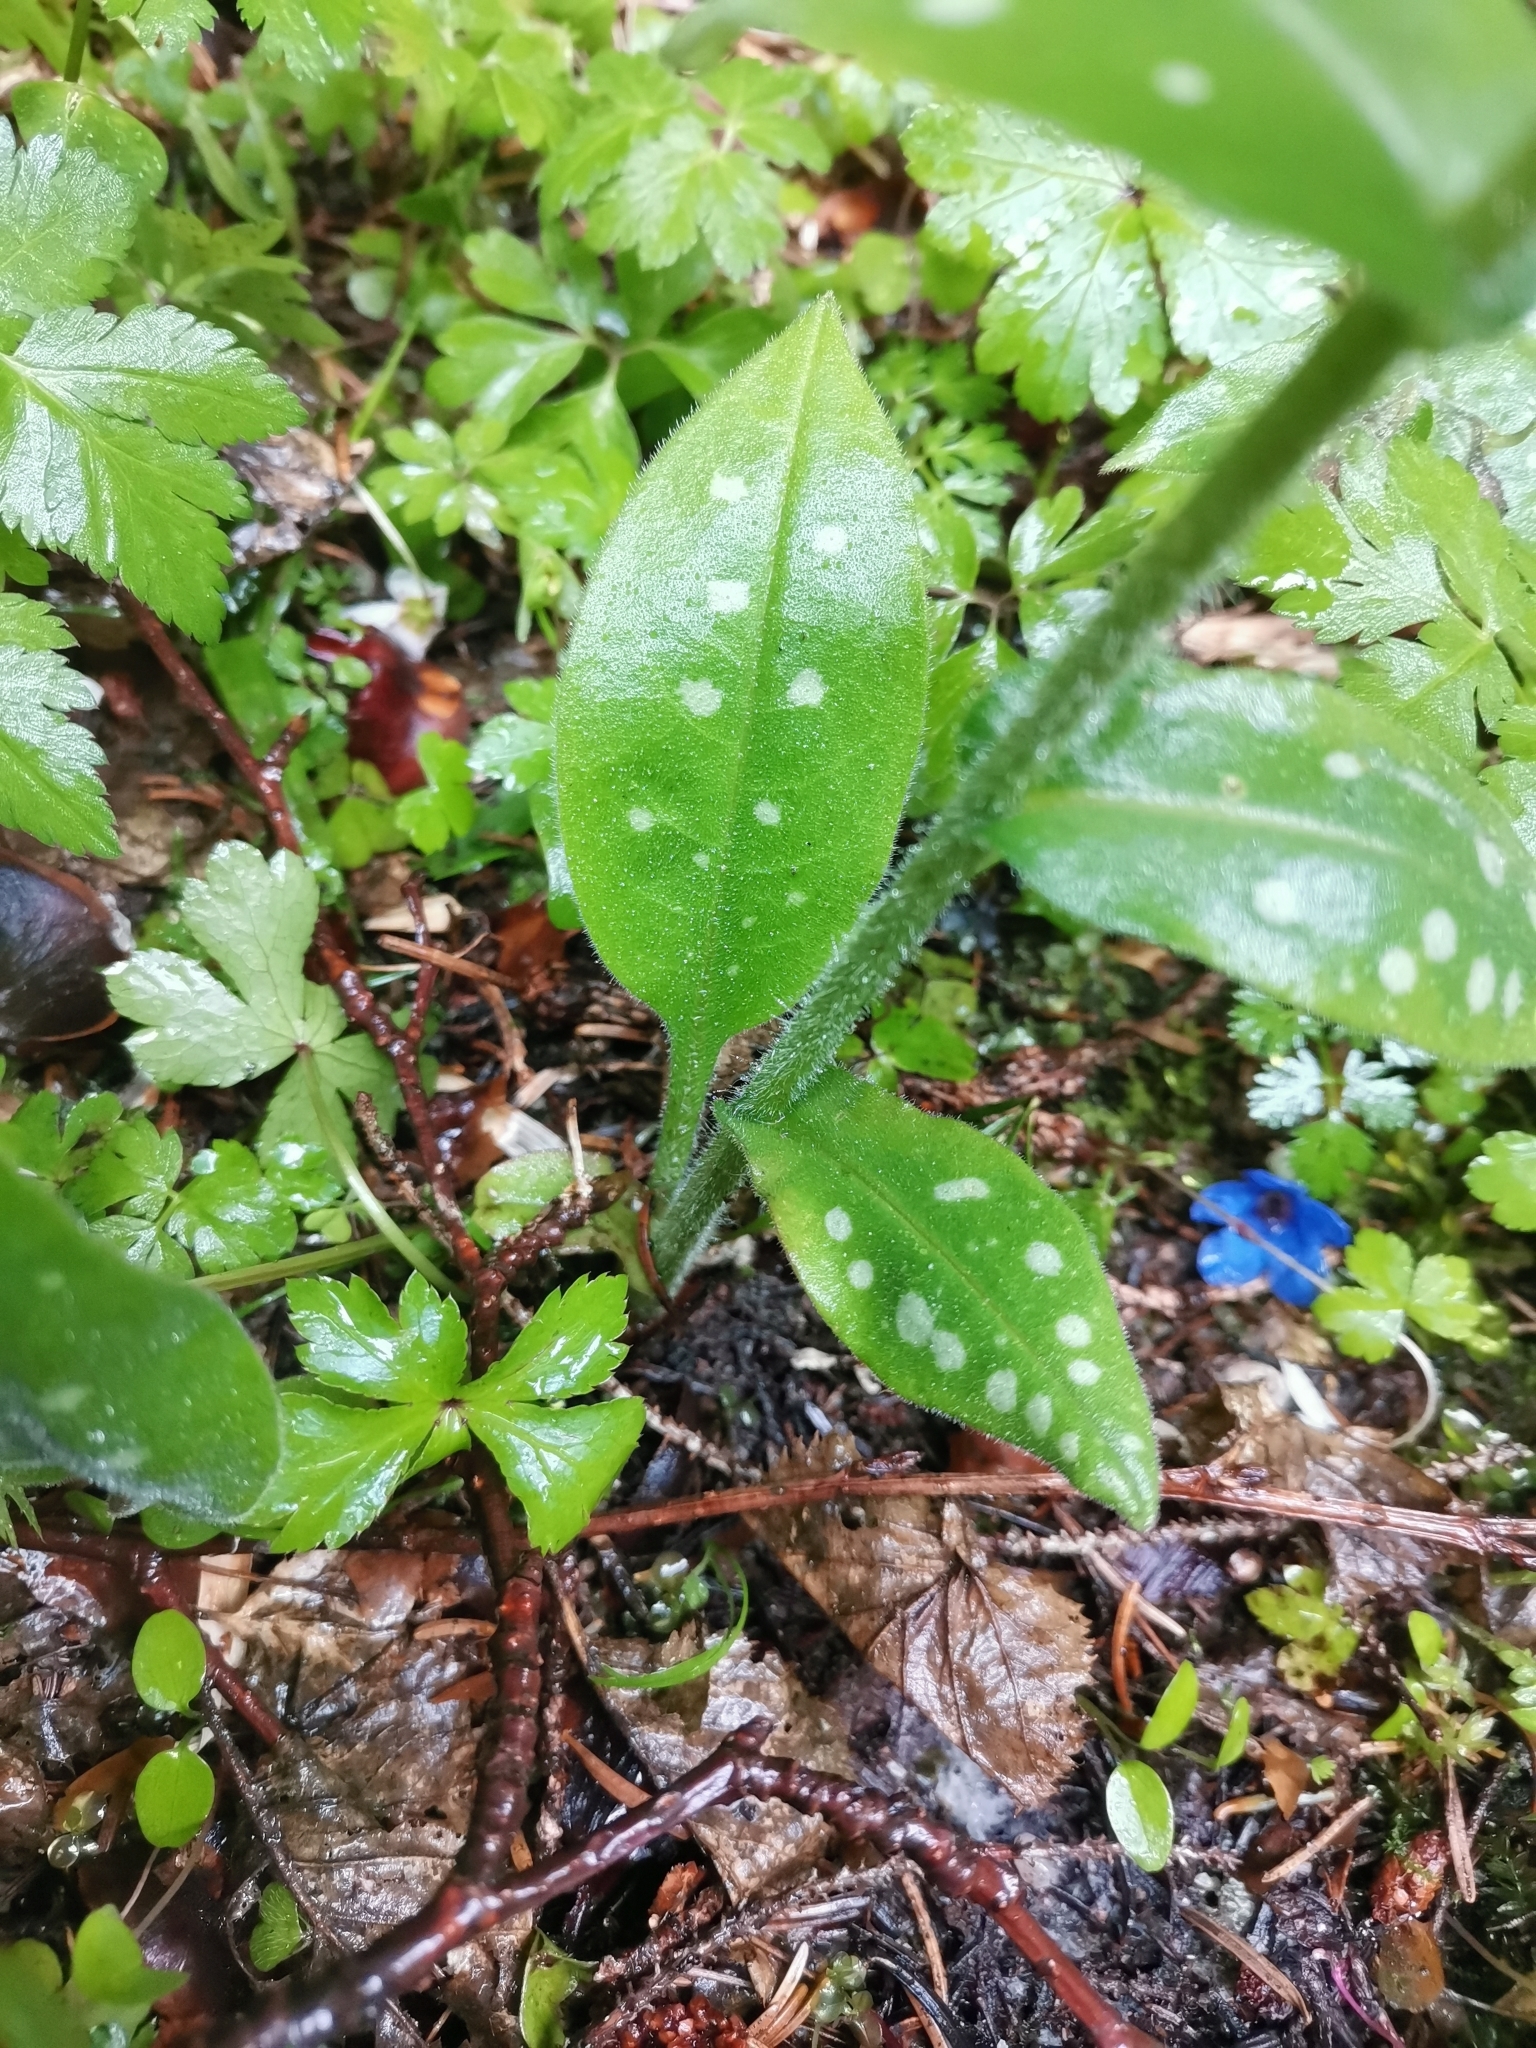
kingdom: Plantae
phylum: Tracheophyta
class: Magnoliopsida
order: Boraginales
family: Boraginaceae
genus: Pulmonaria
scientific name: Pulmonaria stiriaca
